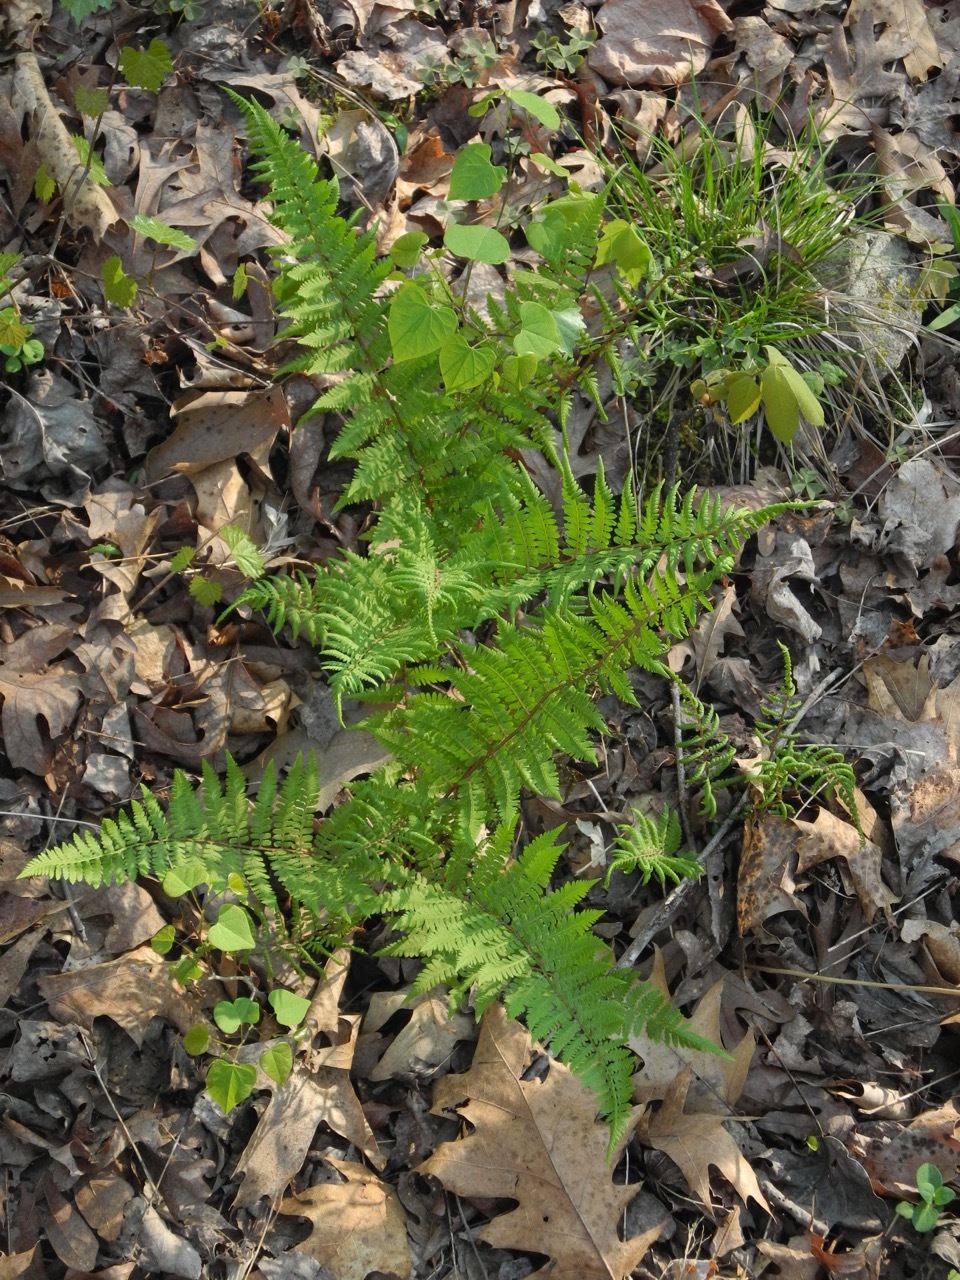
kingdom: Plantae
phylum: Tracheophyta
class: Polypodiopsida
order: Polypodiales
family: Athyriaceae
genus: Athyrium
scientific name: Athyrium asplenioides
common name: Southern lady fern
